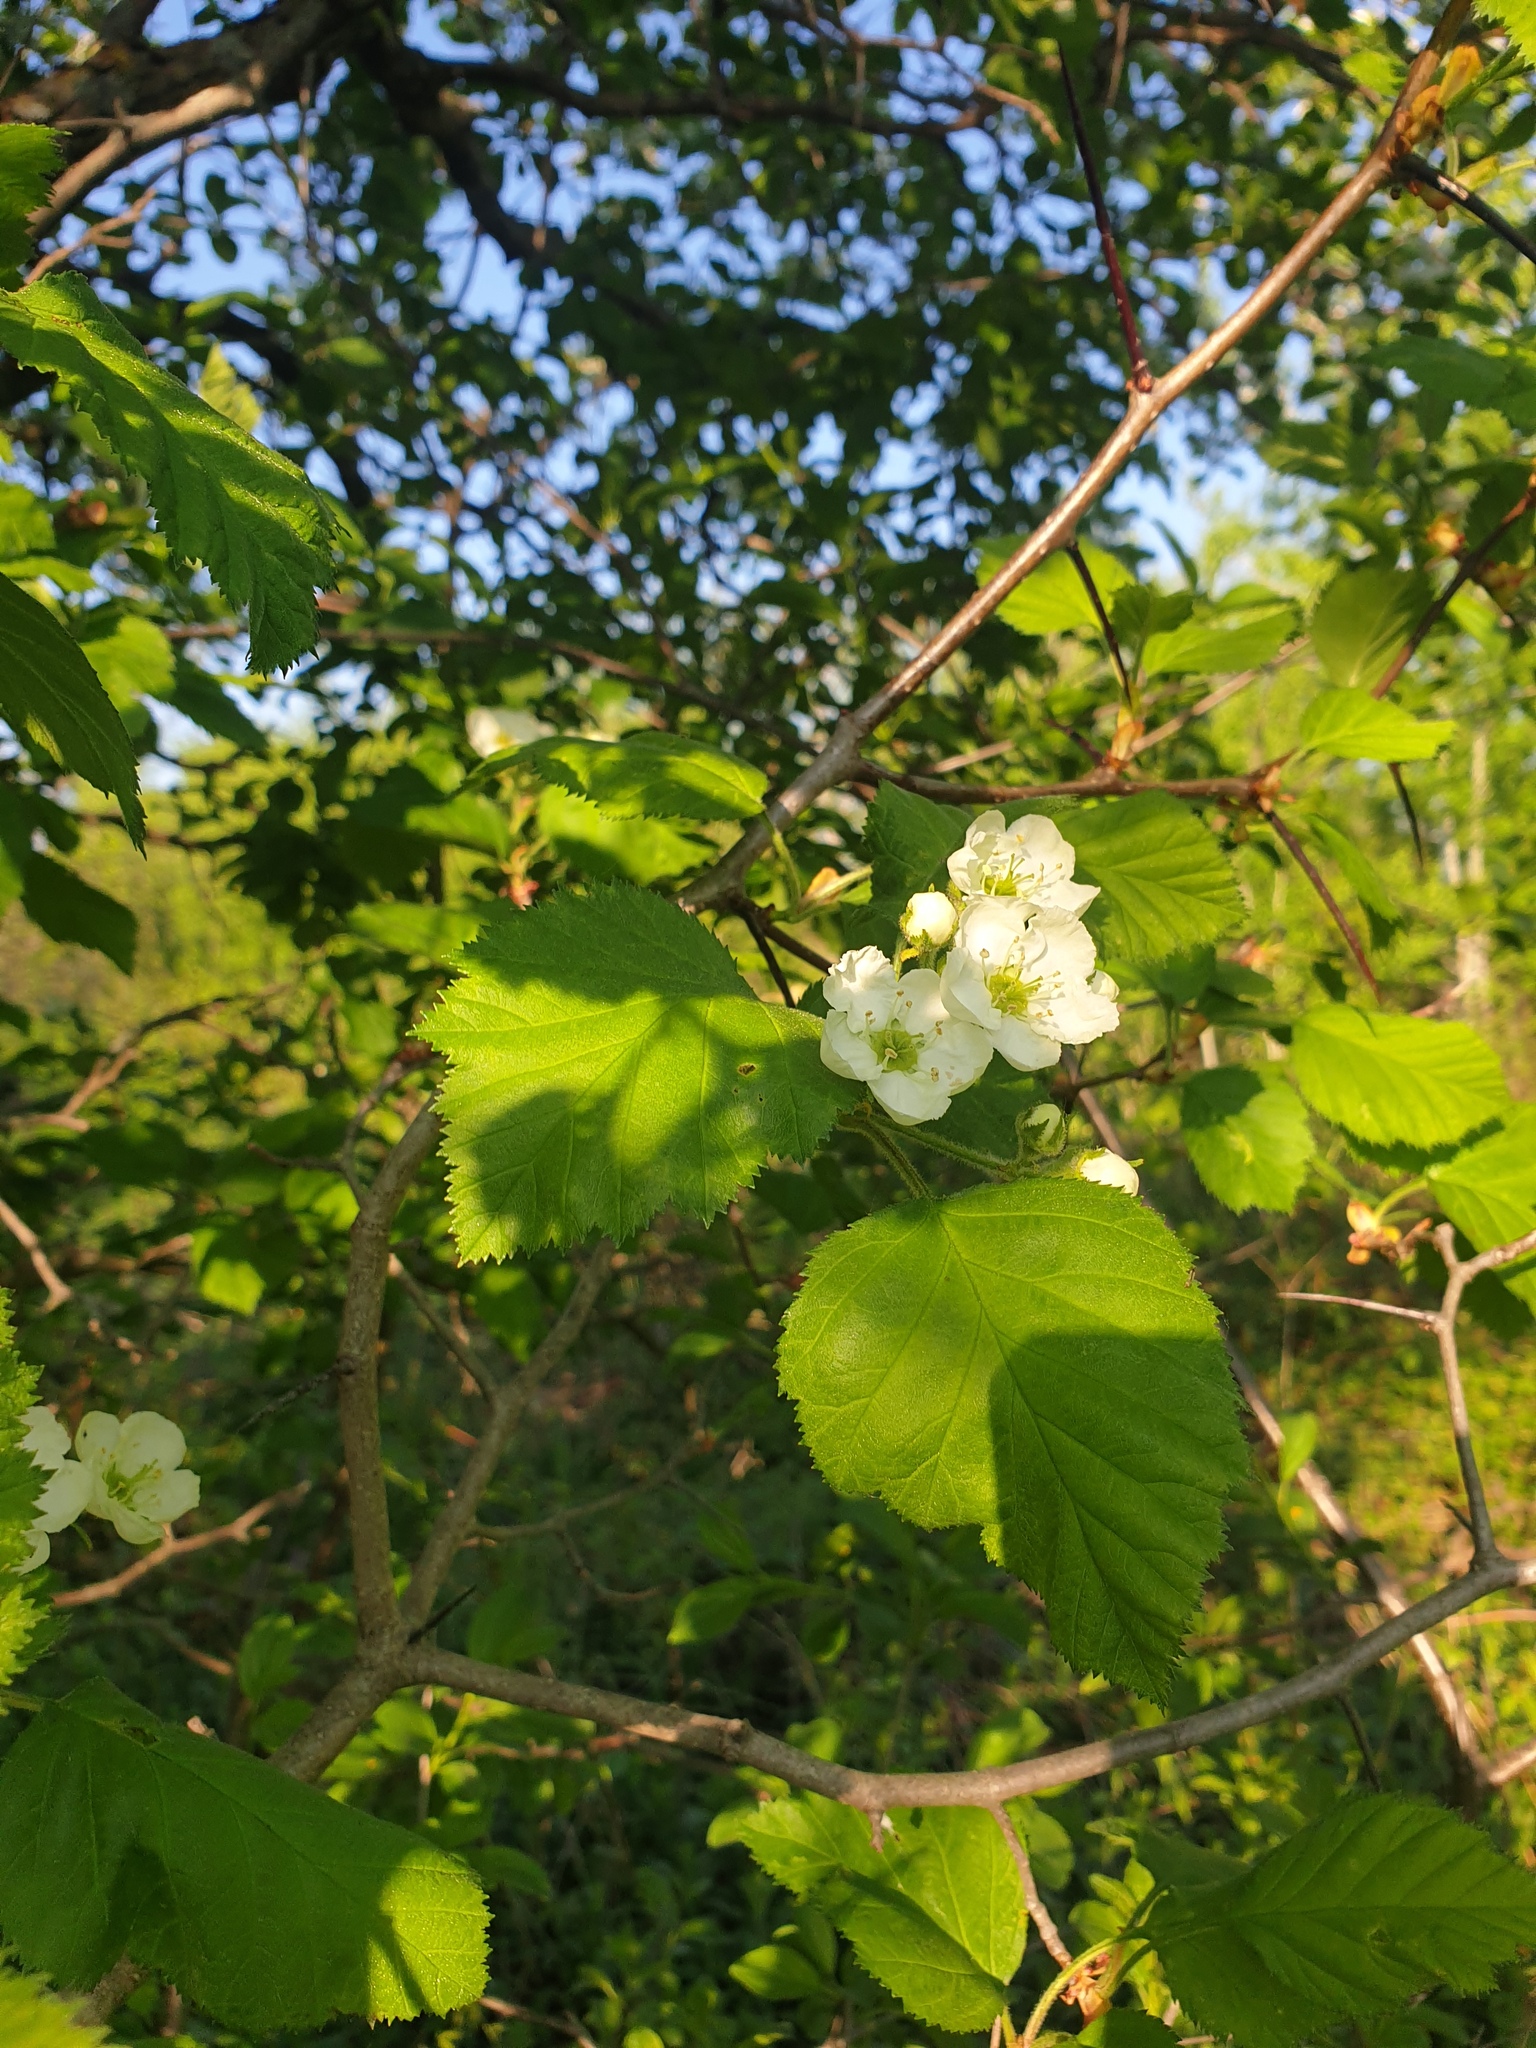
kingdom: Plantae
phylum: Tracheophyta
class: Magnoliopsida
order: Rosales
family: Rosaceae
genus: Crataegus
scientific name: Crataegus submollis
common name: Hairy cockspurthorn
